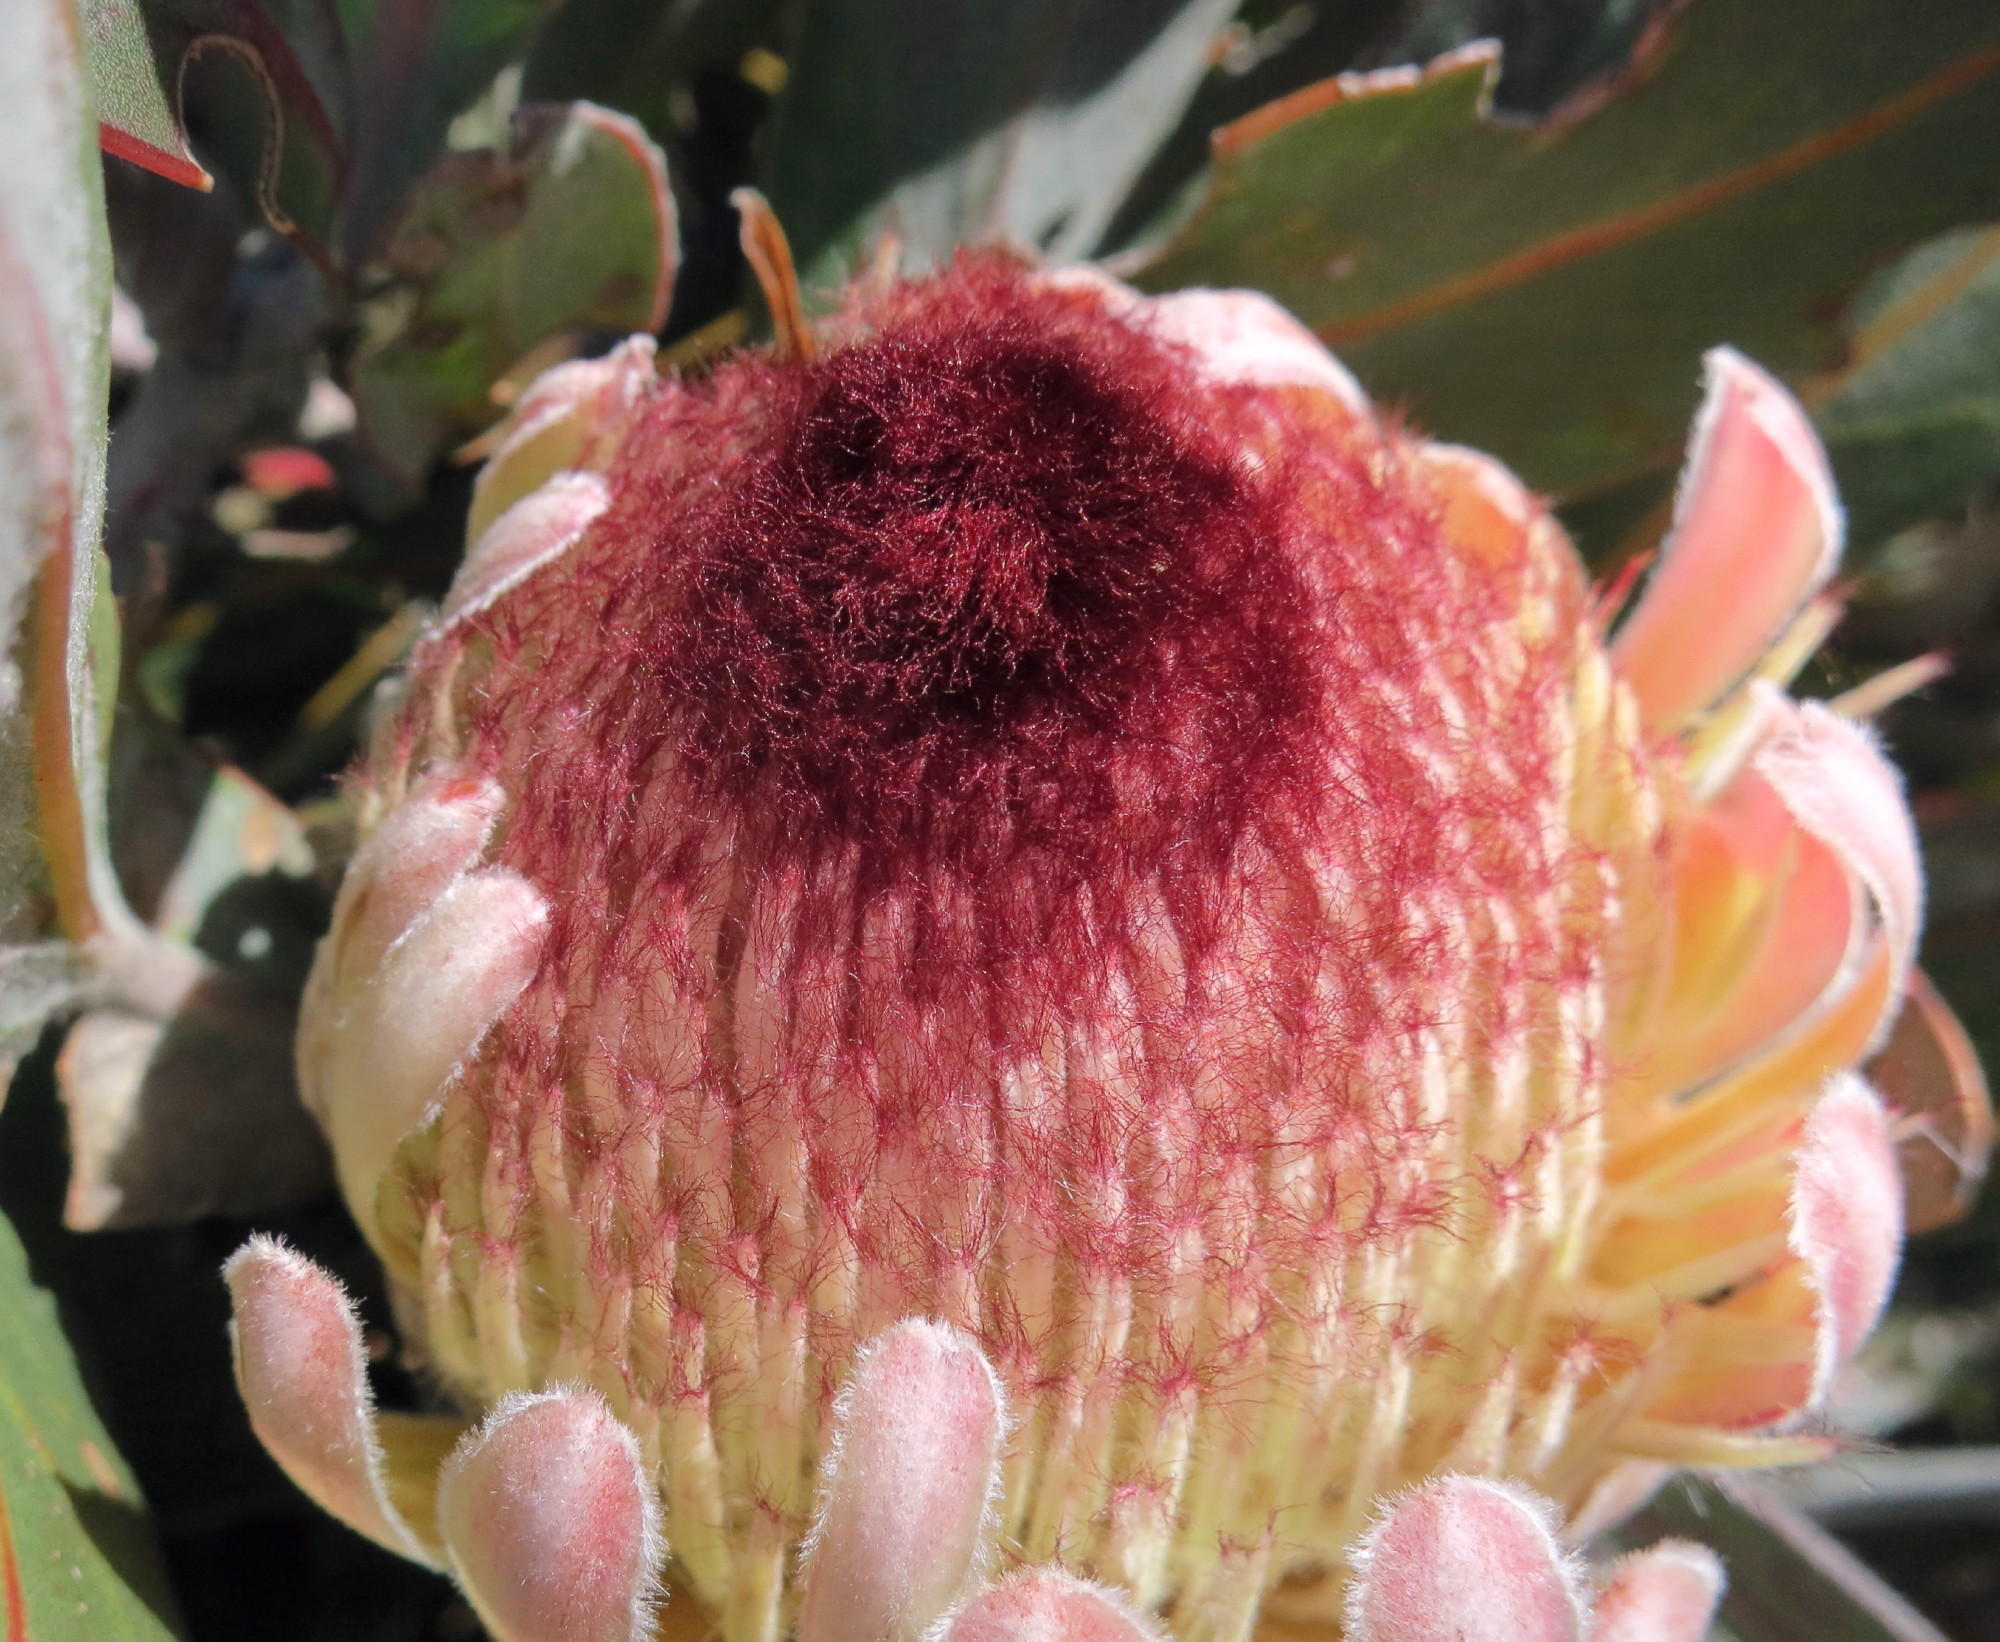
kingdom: Plantae
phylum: Tracheophyta
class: Magnoliopsida
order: Proteales
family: Proteaceae
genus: Protea
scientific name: Protea lorifolia
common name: Strap-leaved protea
